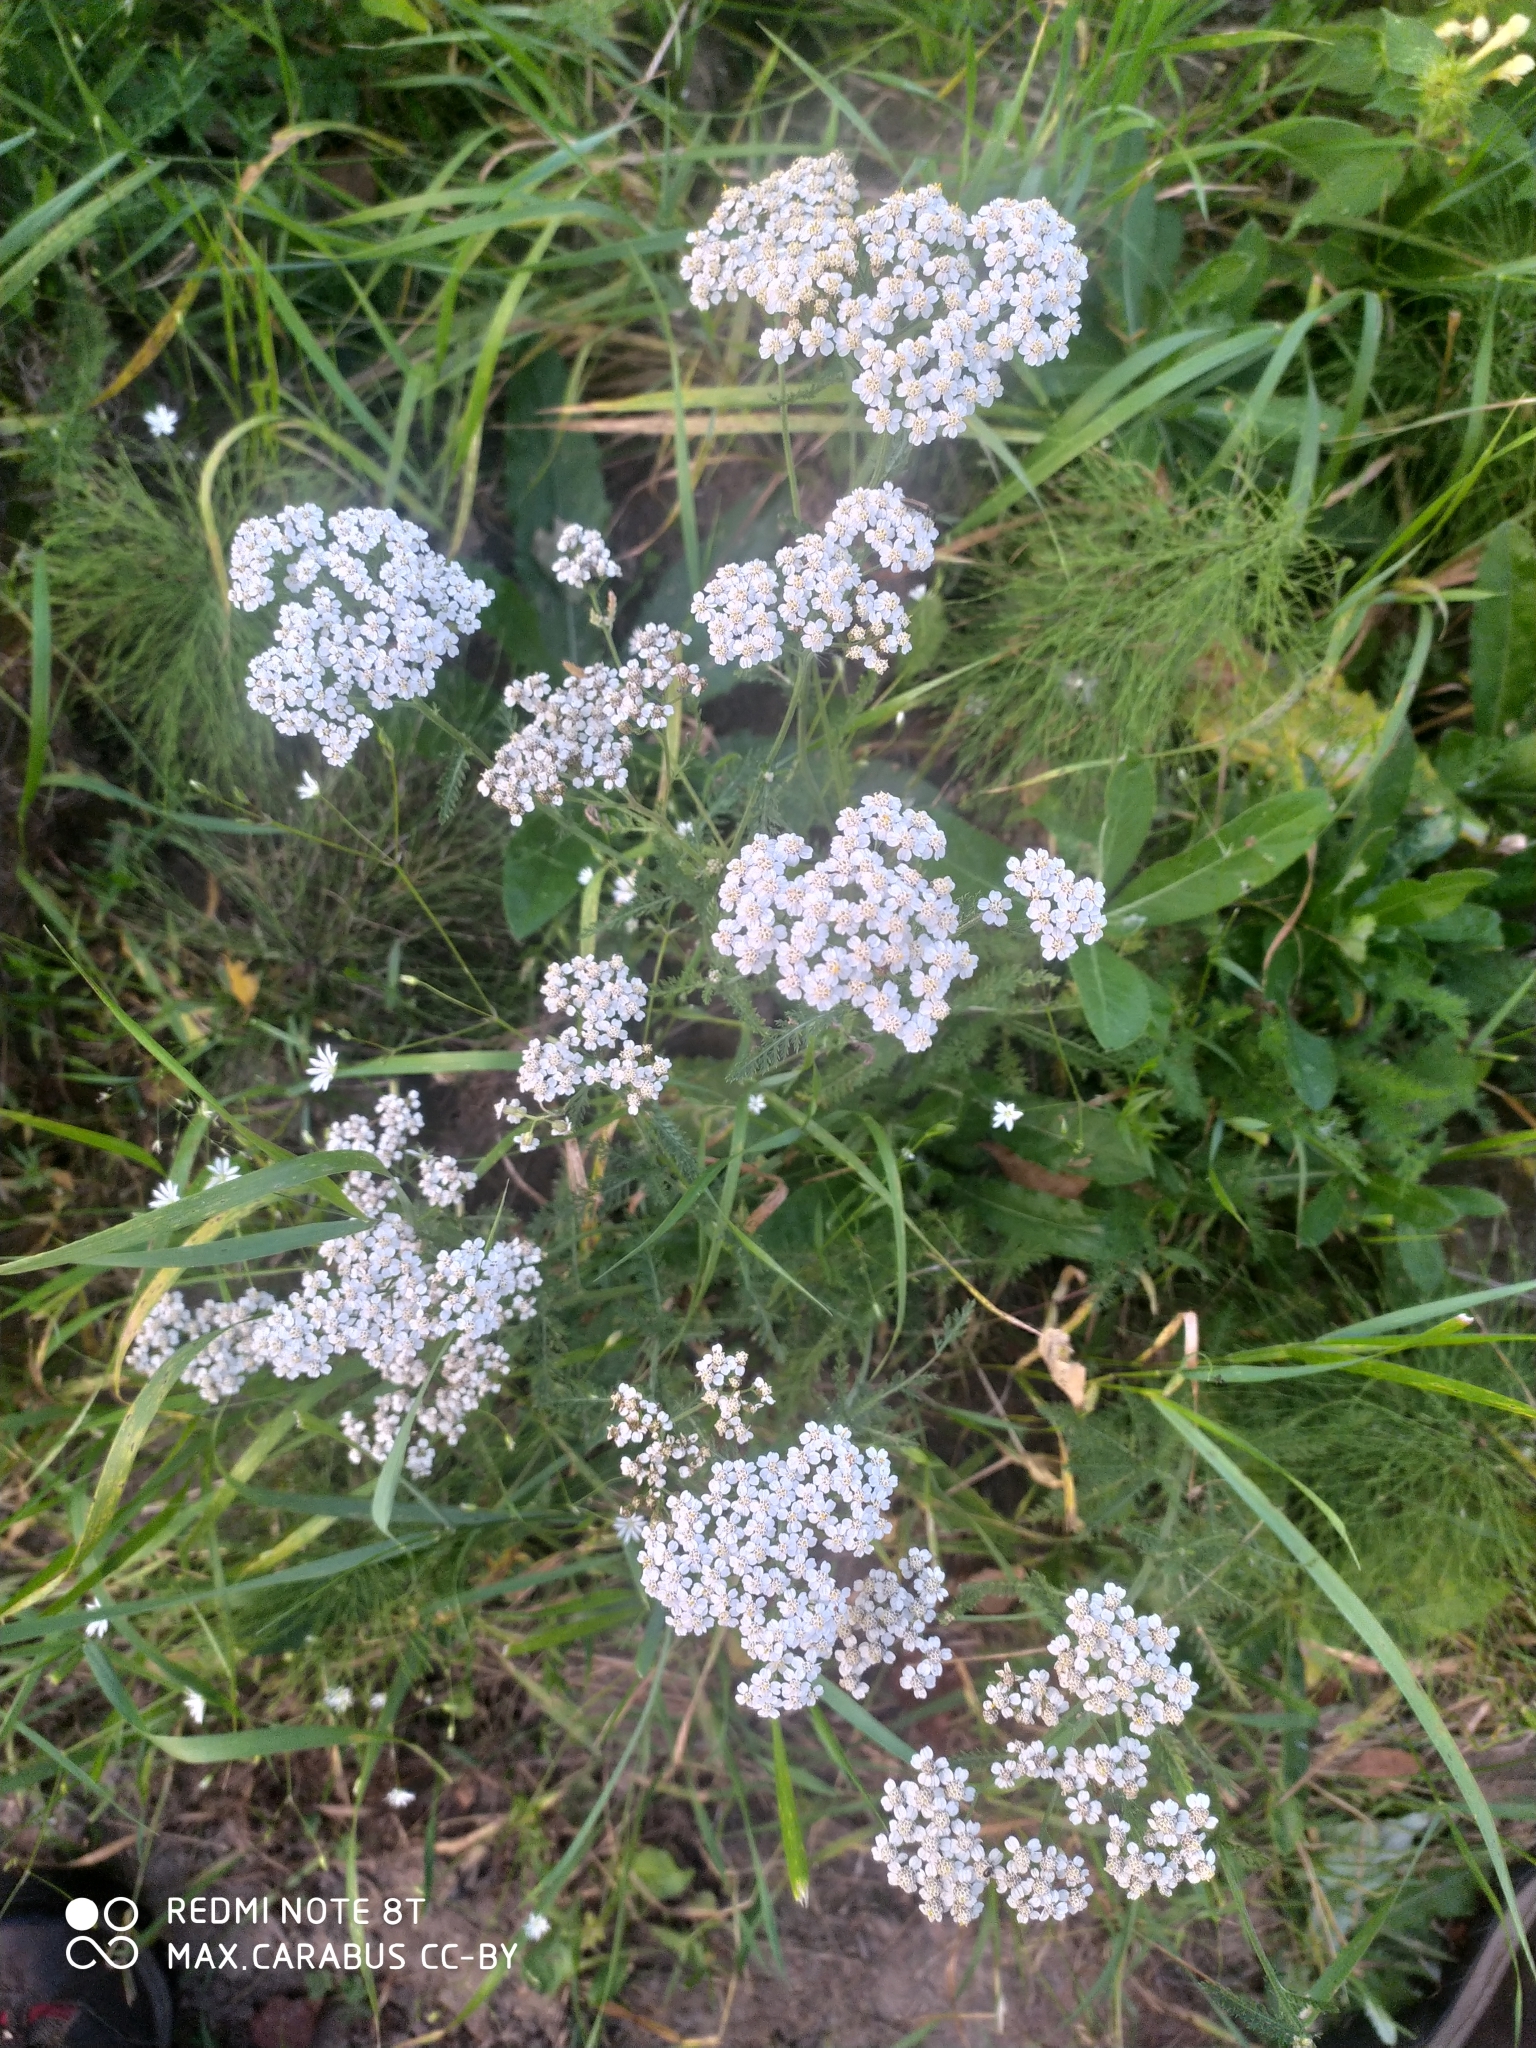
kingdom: Plantae
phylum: Tracheophyta
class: Magnoliopsida
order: Asterales
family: Asteraceae
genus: Achillea
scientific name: Achillea millefolium
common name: Yarrow
